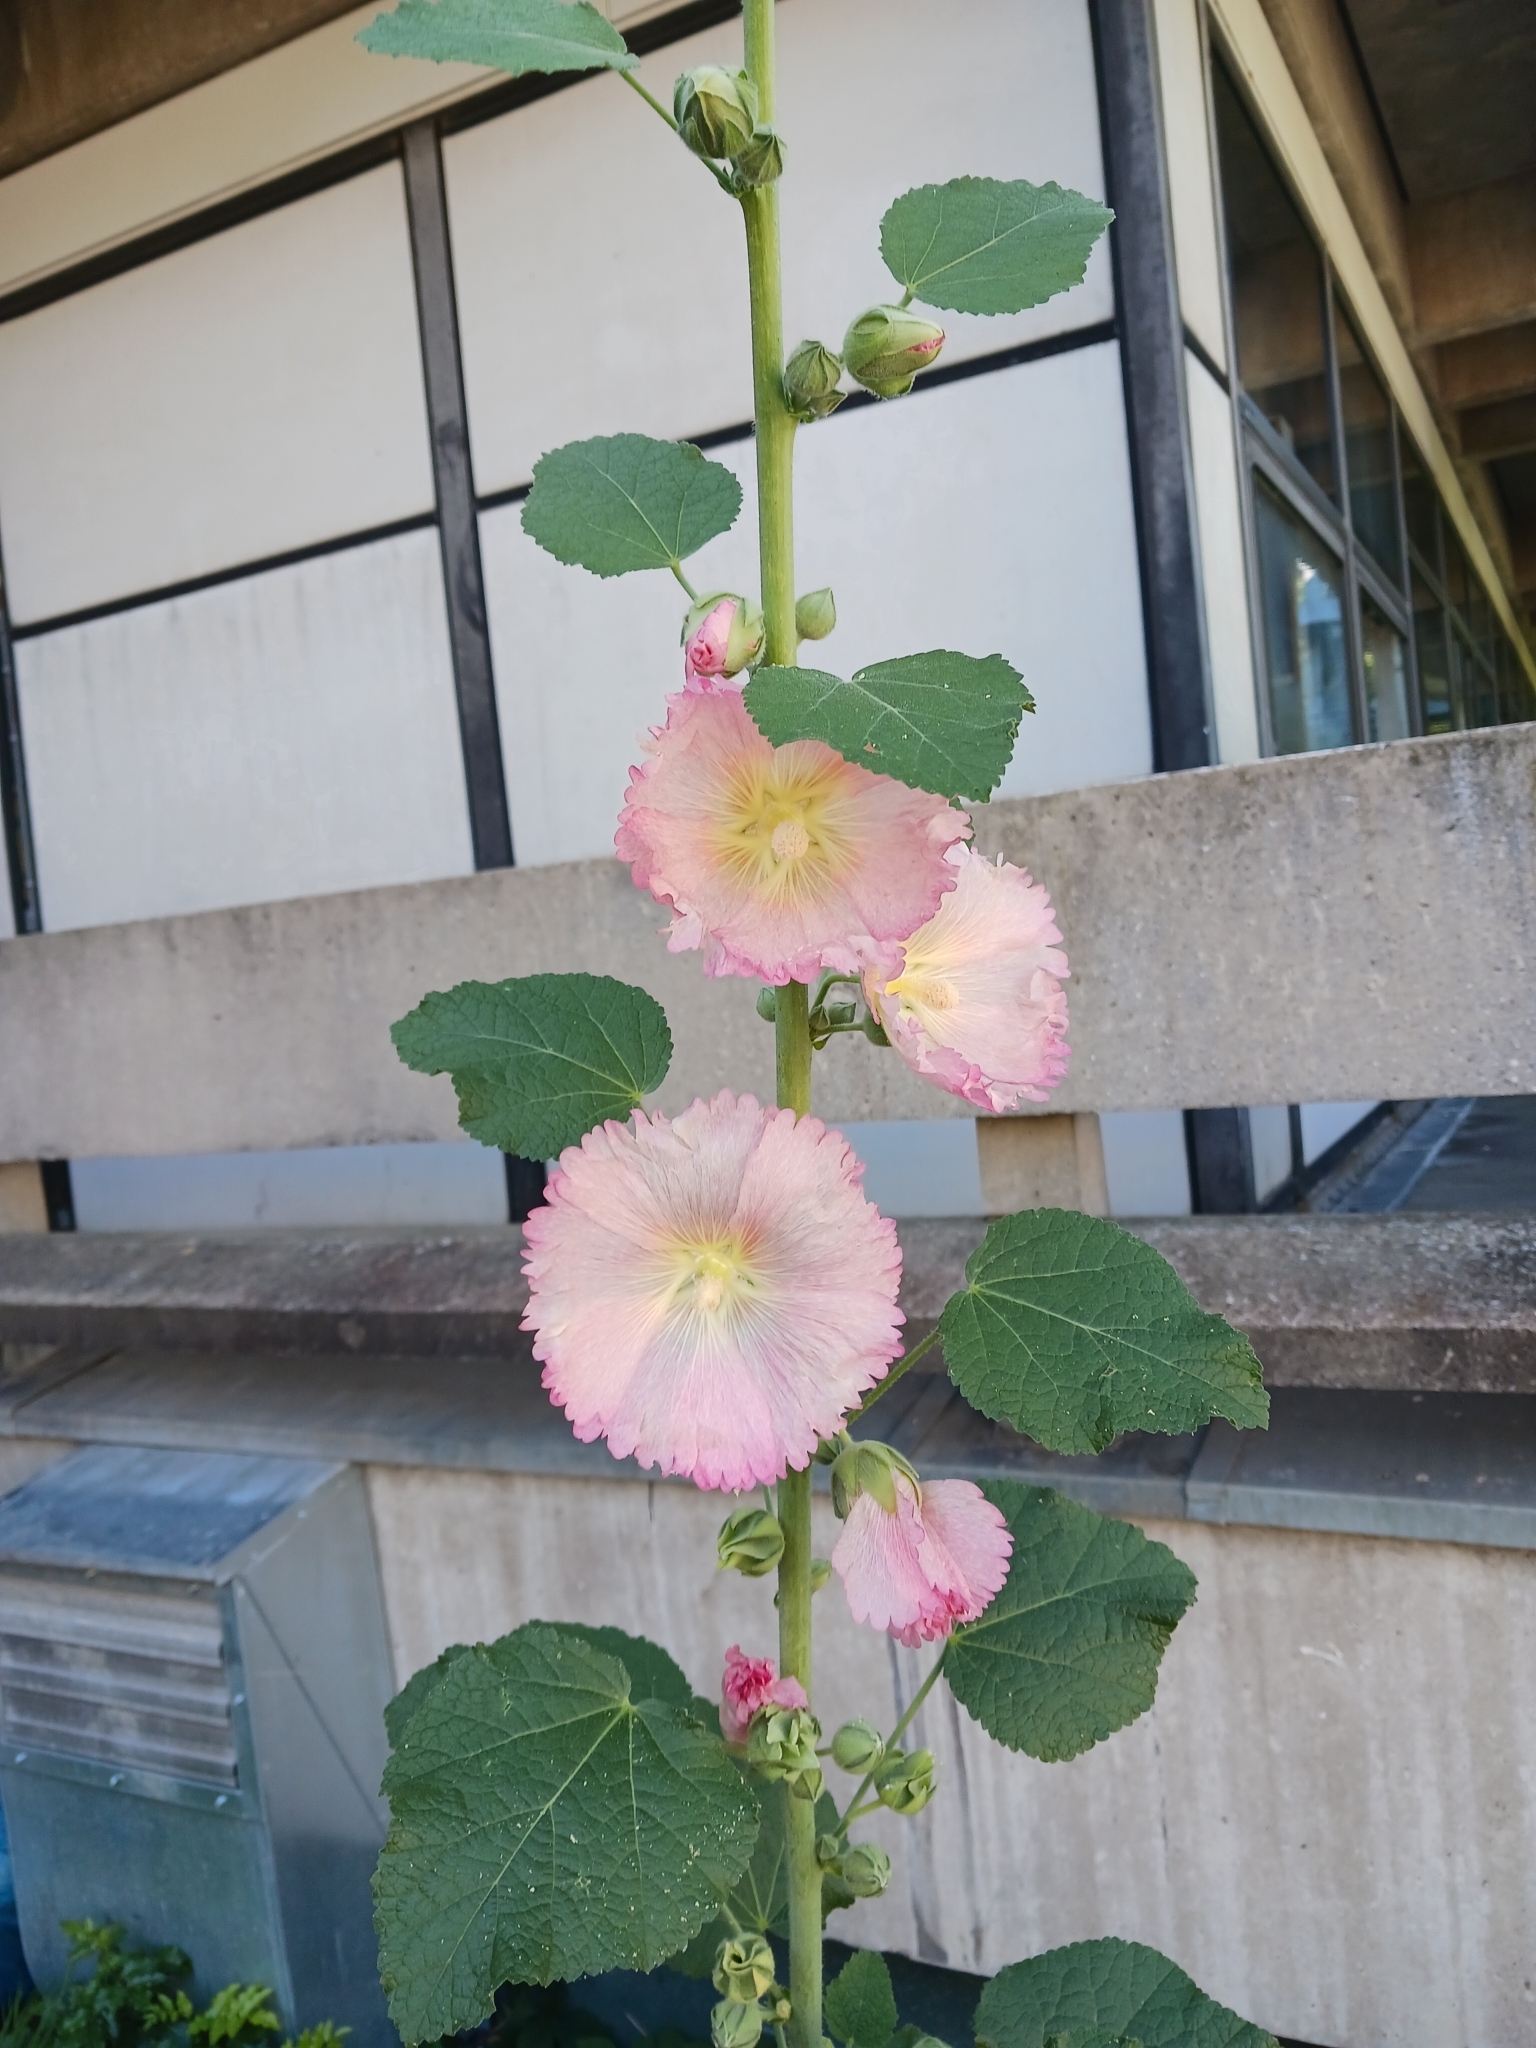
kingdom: Plantae
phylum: Tracheophyta
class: Magnoliopsida
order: Malvales
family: Malvaceae
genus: Alcea
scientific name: Alcea rosea
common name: Hollyhock
